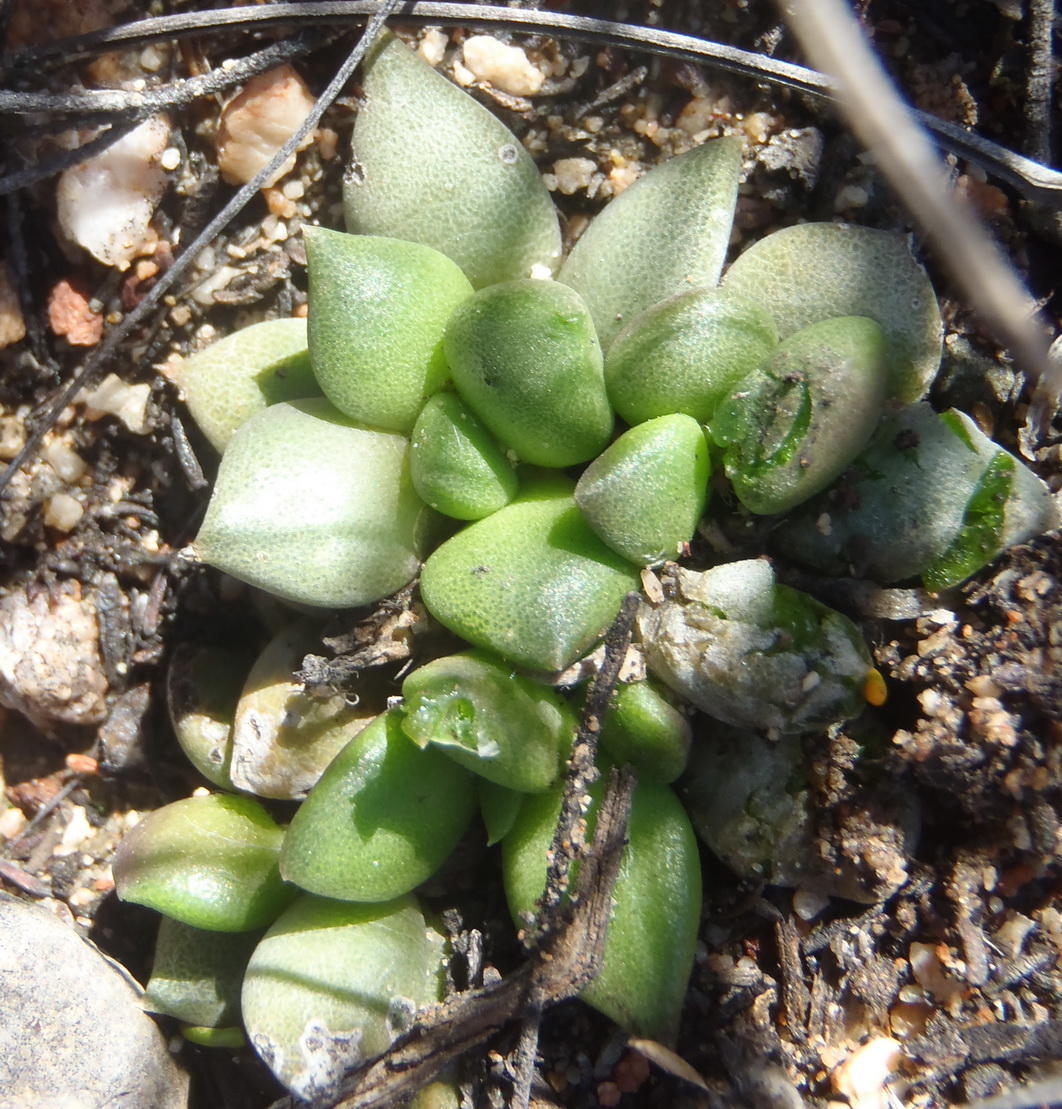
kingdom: Plantae
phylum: Tracheophyta
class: Magnoliopsida
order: Caryophyllales
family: Anacampserotaceae
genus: Anacampseros
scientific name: Anacampseros telephiastrum
